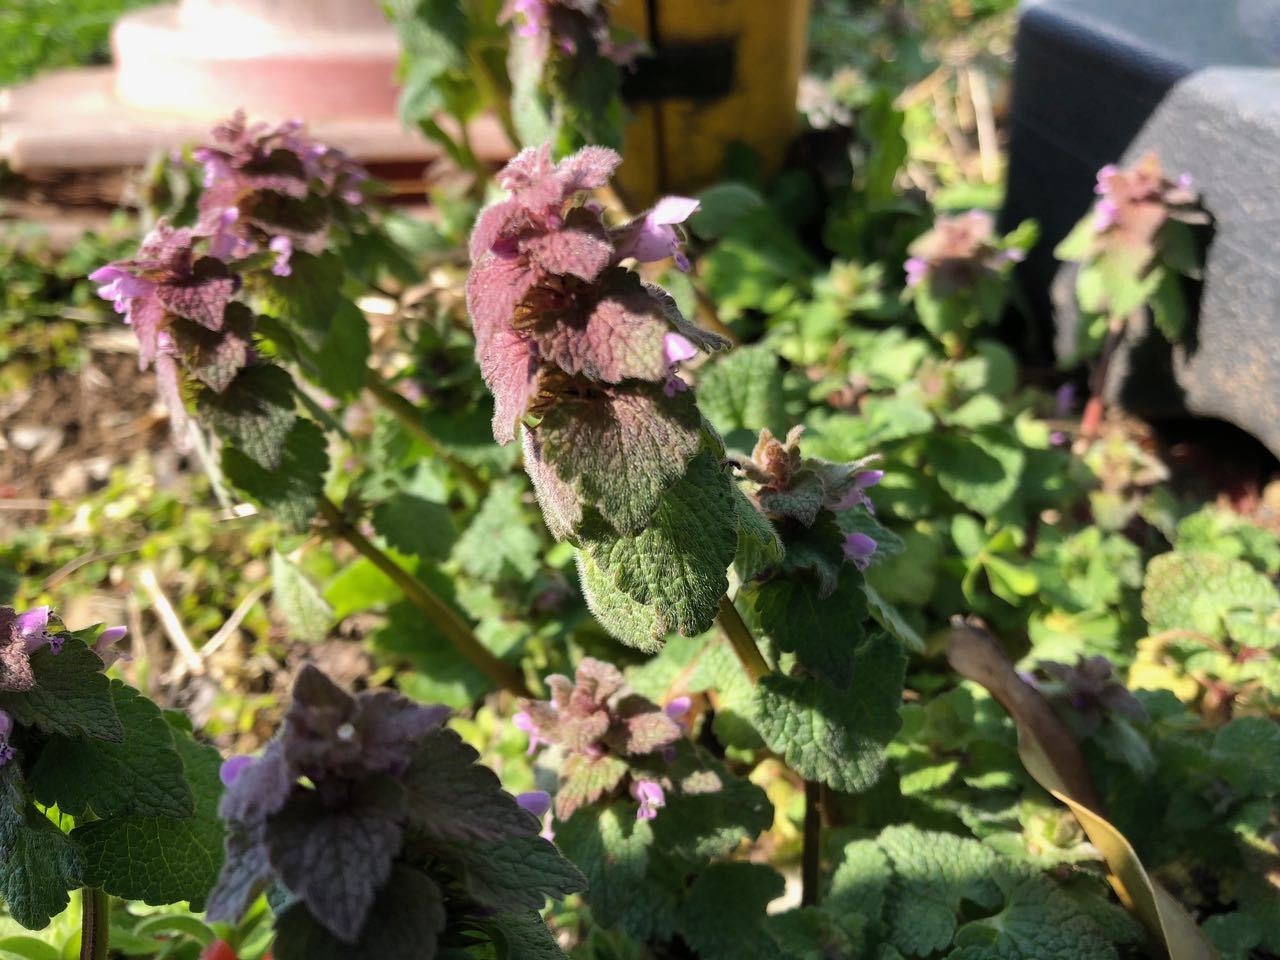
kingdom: Plantae
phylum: Tracheophyta
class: Magnoliopsida
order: Lamiales
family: Lamiaceae
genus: Lamium
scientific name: Lamium purpureum
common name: Red dead-nettle
